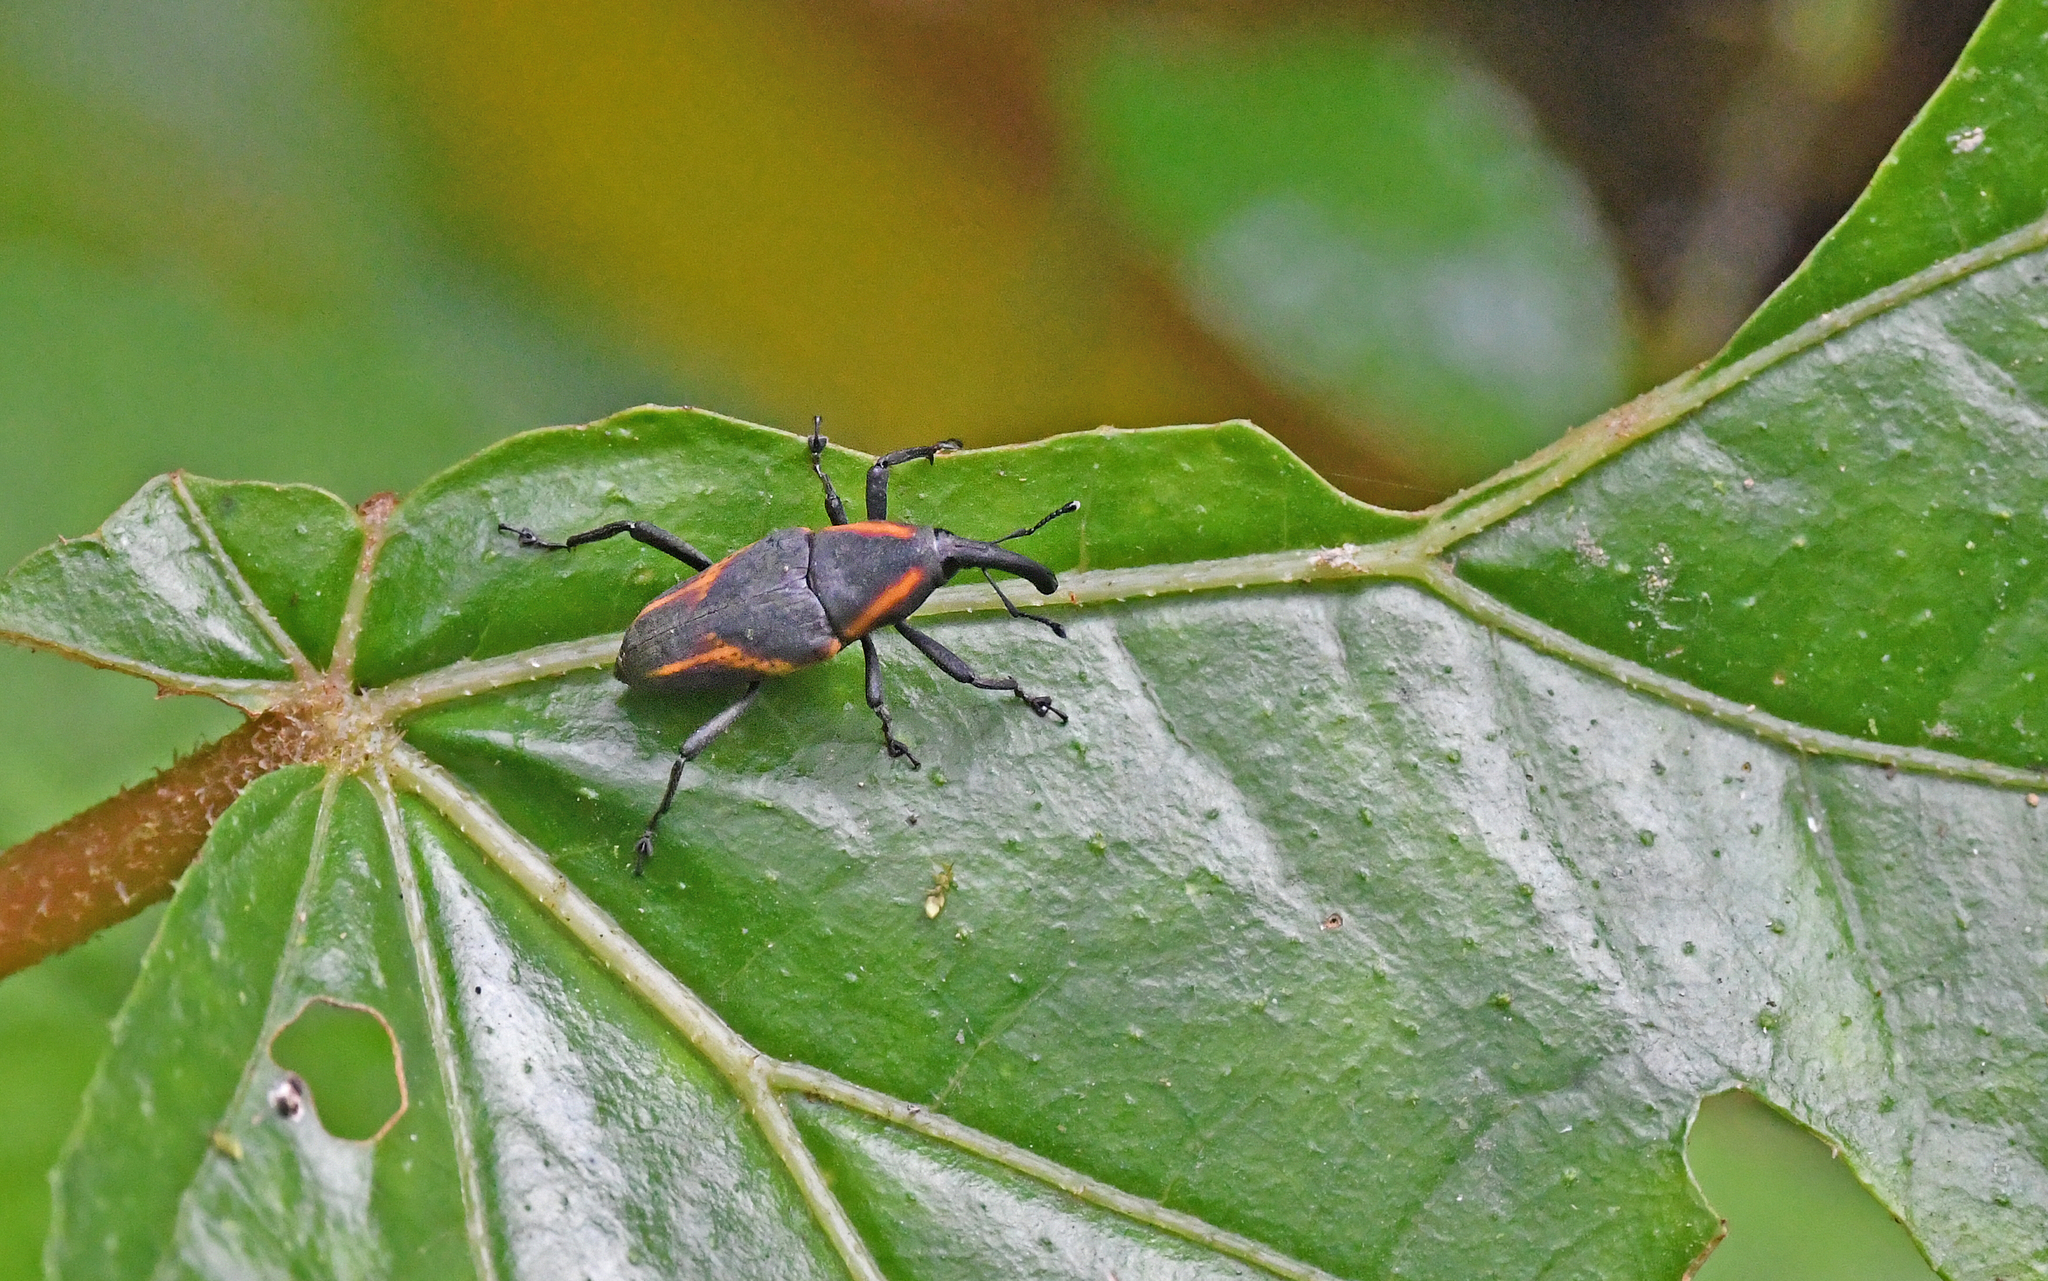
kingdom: Animalia
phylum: Arthropoda
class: Insecta
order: Coleoptera
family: Dryophthoridae
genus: Cactophagus
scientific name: Cactophagus circumjectus
